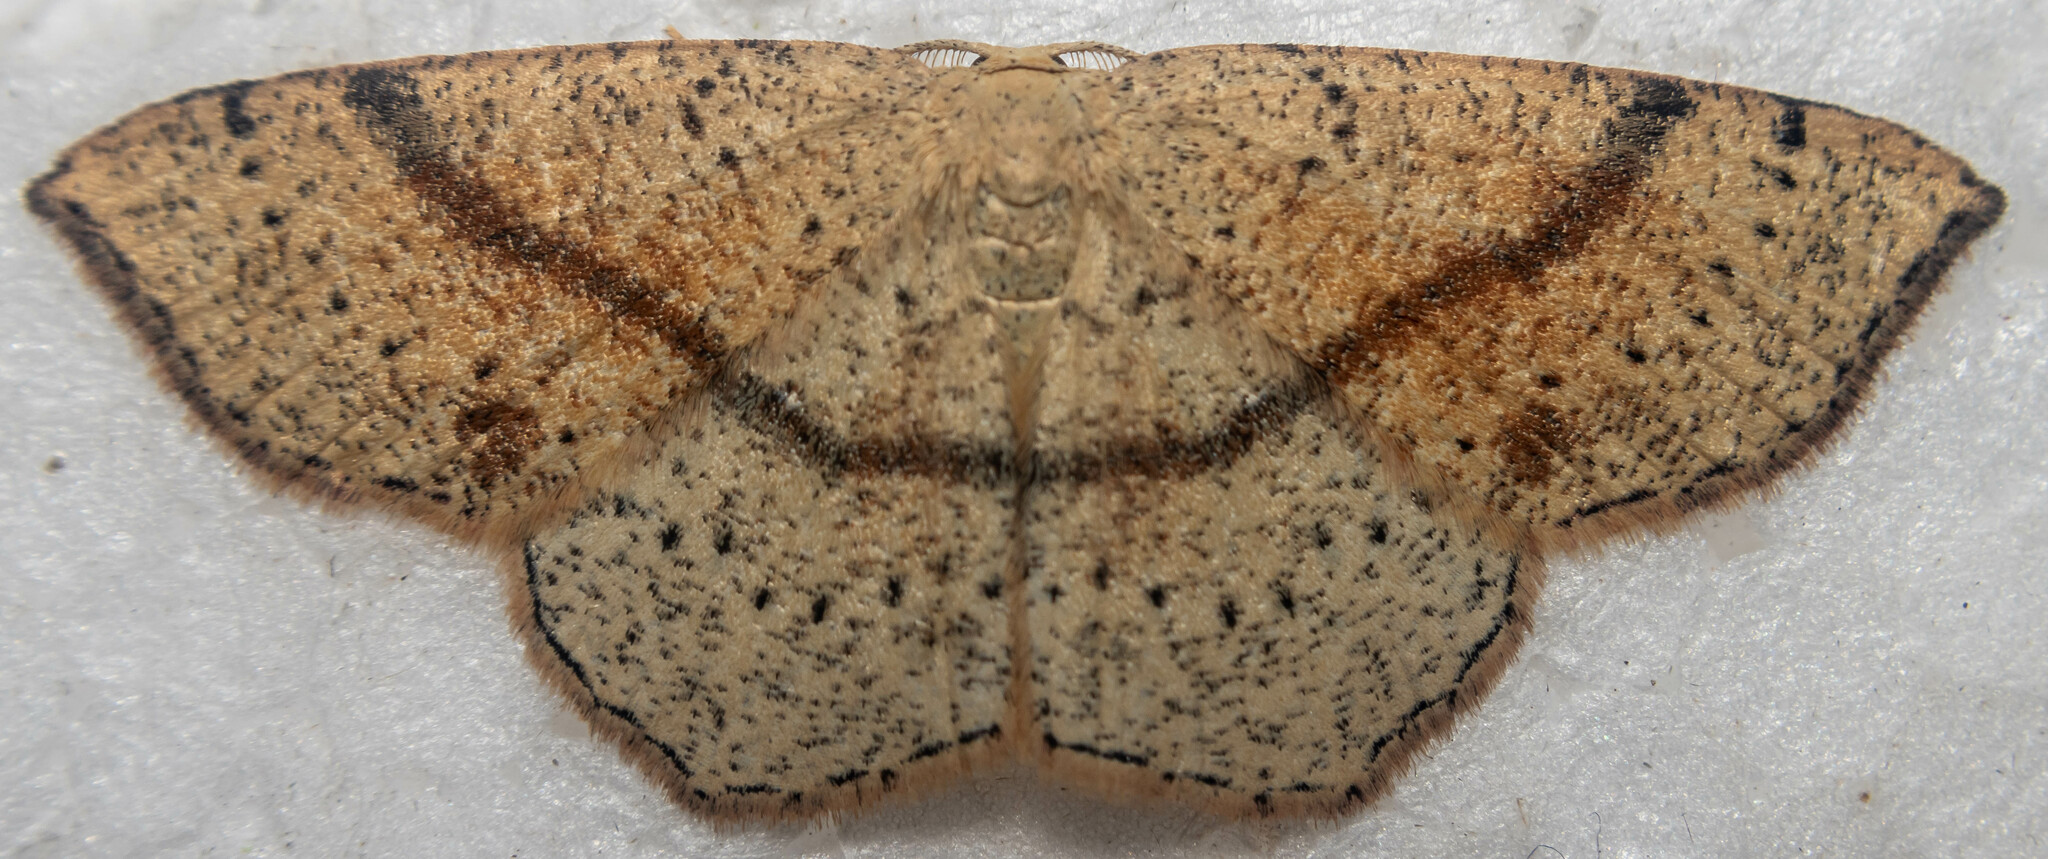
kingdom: Animalia
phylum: Arthropoda
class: Insecta
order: Lepidoptera
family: Geometridae
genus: Cyclophora
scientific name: Cyclophora punctaria
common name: Maiden's blush
